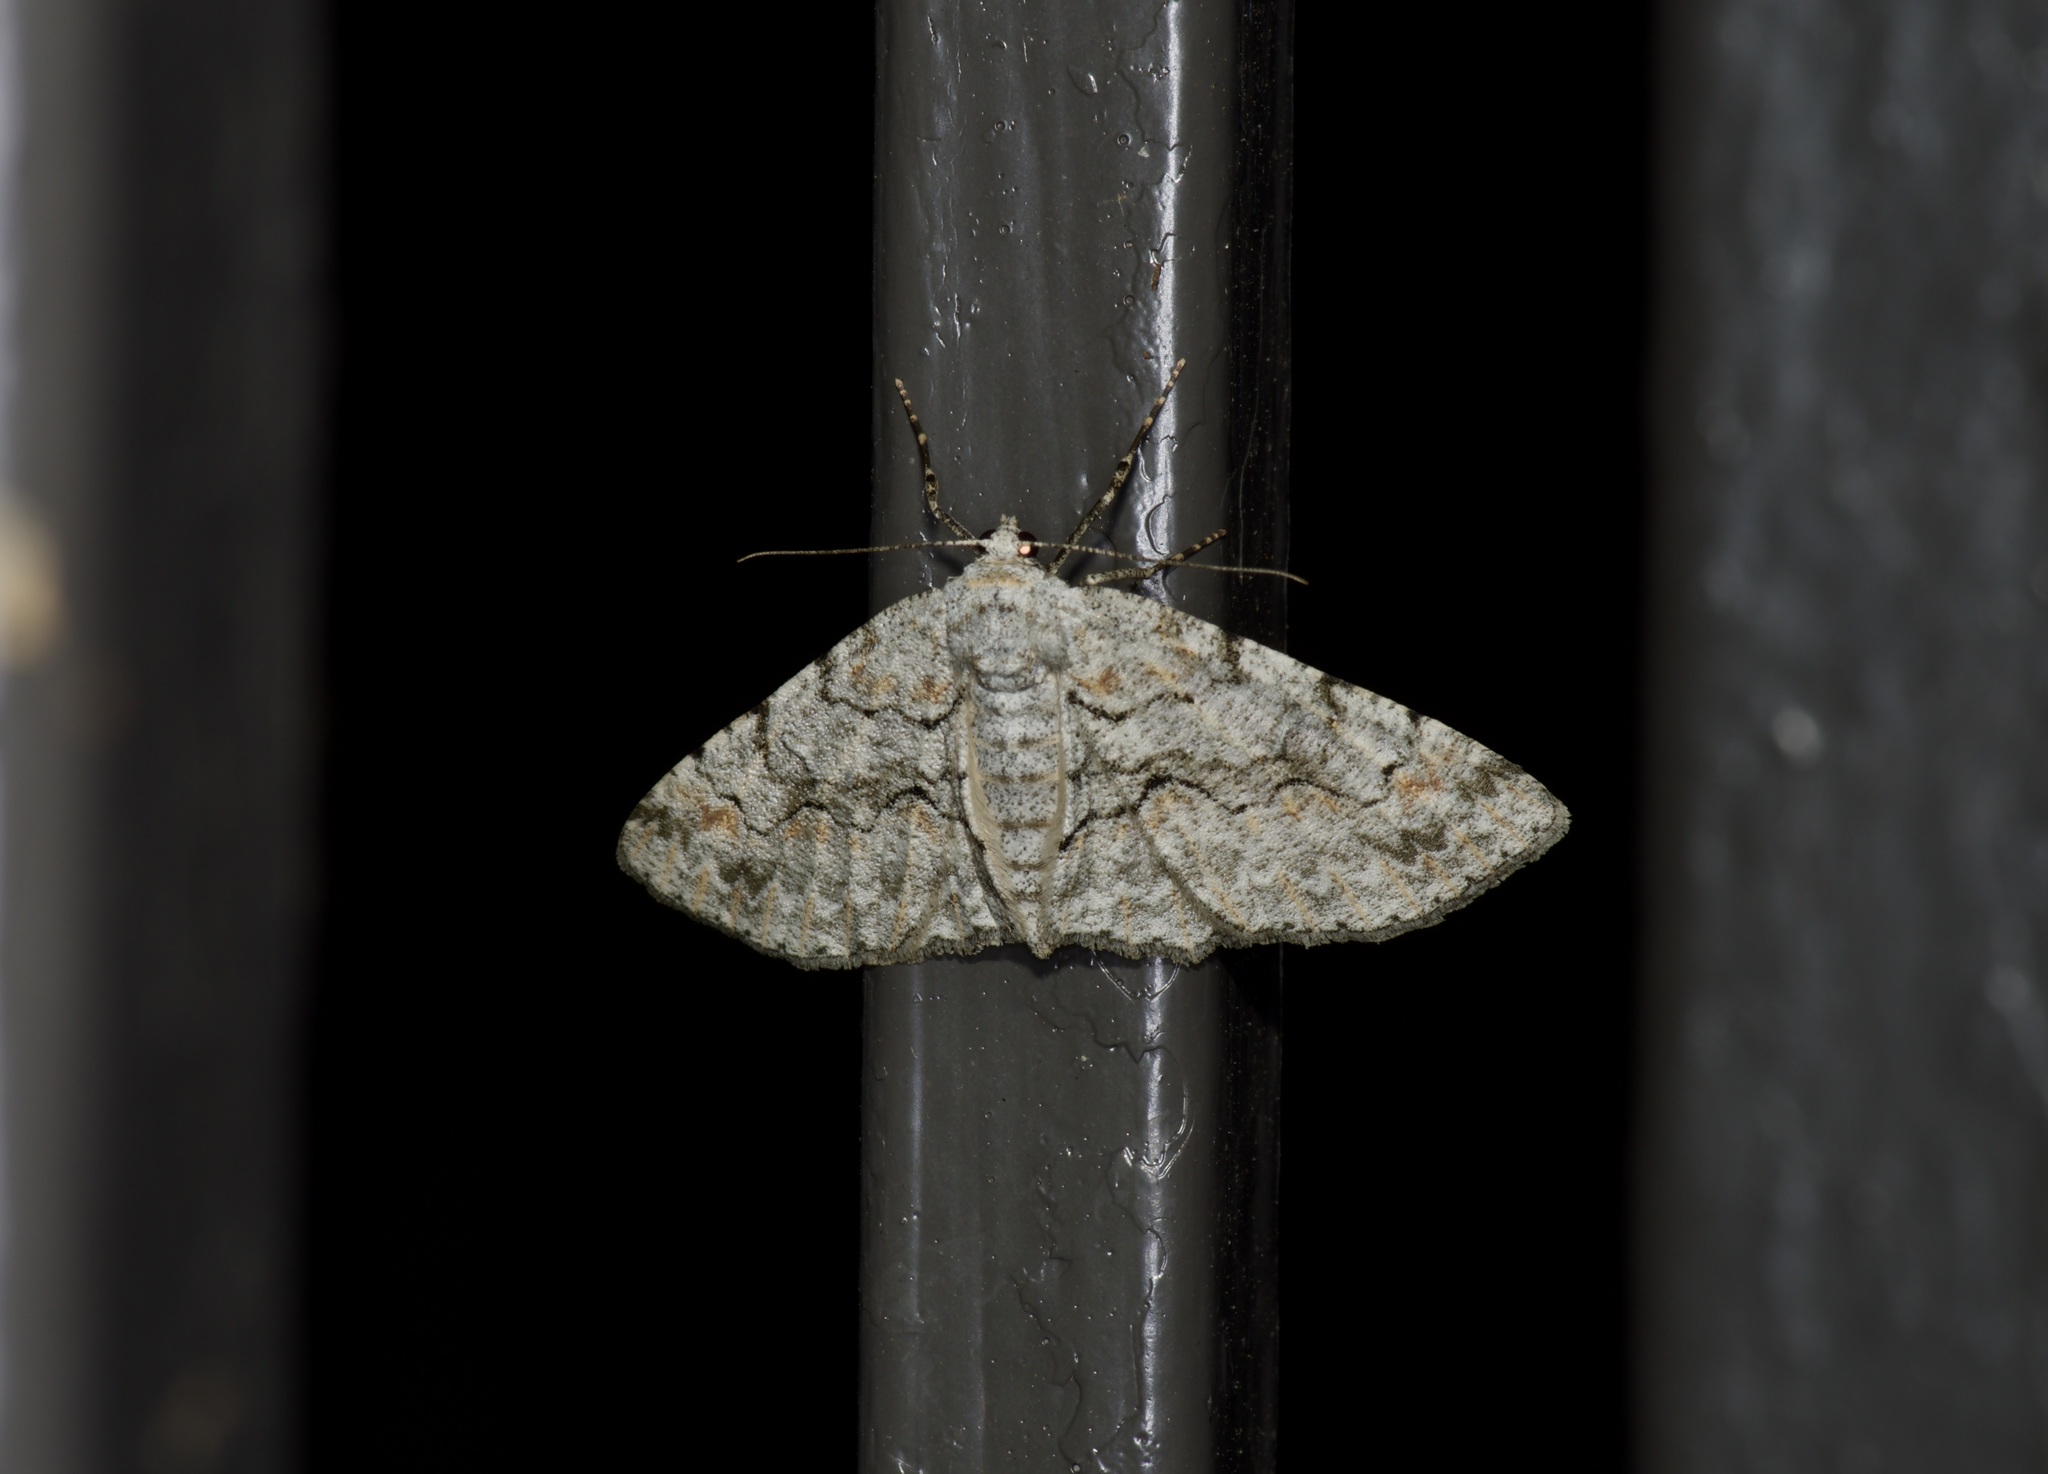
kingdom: Animalia
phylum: Arthropoda
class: Insecta
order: Lepidoptera
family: Geometridae
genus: Iridopsis
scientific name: Iridopsis defectaria
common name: Brown-shaded gray
